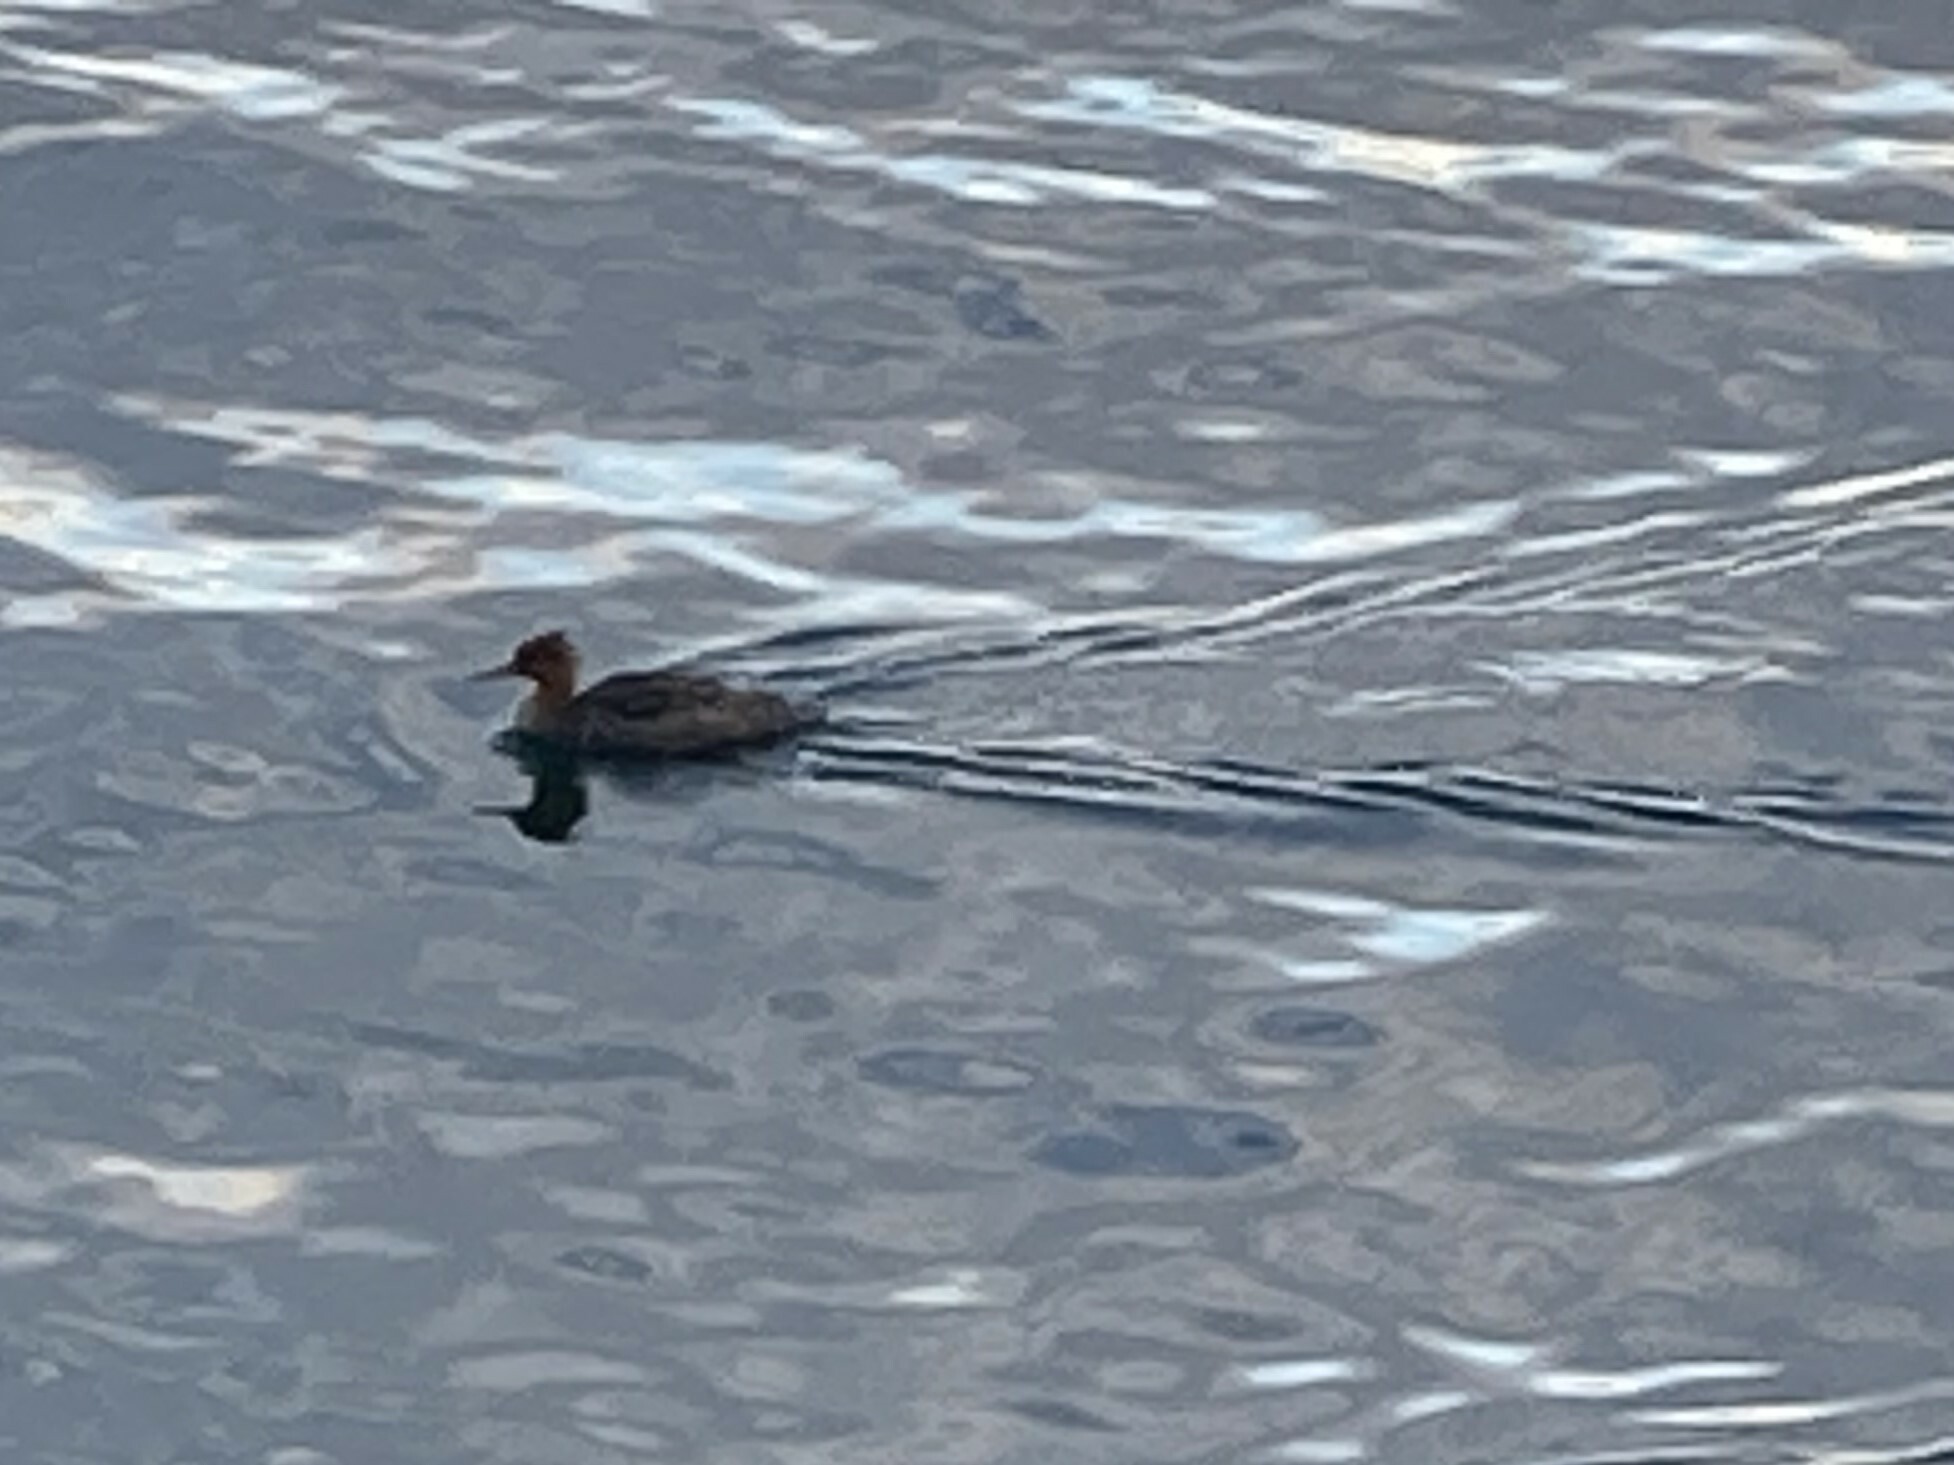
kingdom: Animalia
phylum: Chordata
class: Aves
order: Anseriformes
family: Anatidae
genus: Mergus
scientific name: Mergus serrator
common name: Red-breasted merganser
